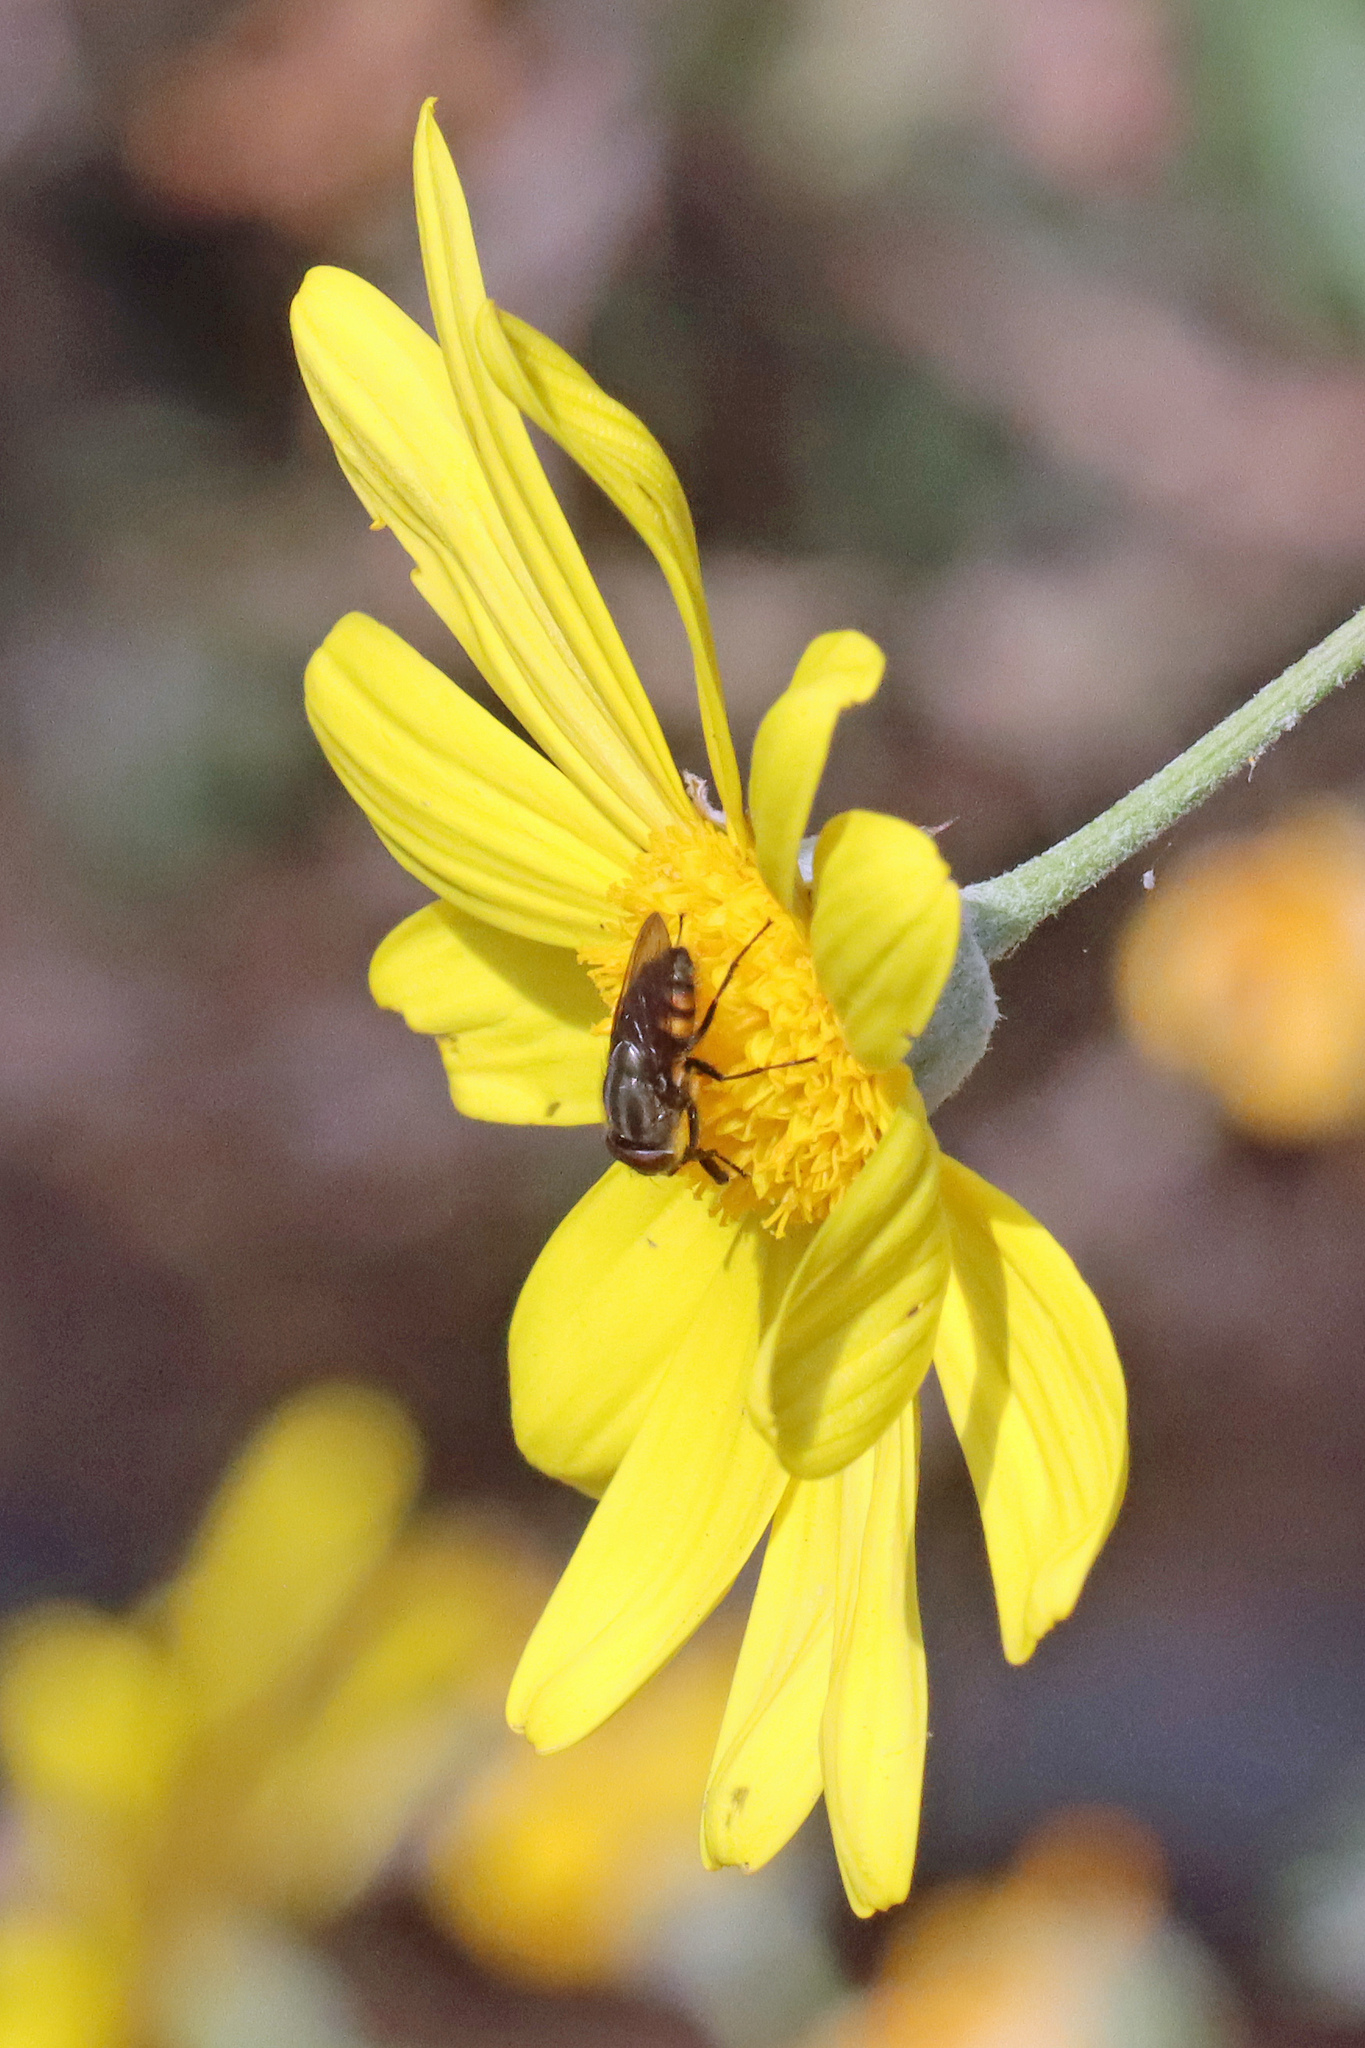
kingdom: Animalia
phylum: Arthropoda
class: Insecta
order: Diptera
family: Calliphoridae
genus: Stomorhina
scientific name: Stomorhina lunata
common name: Locust blowfly
